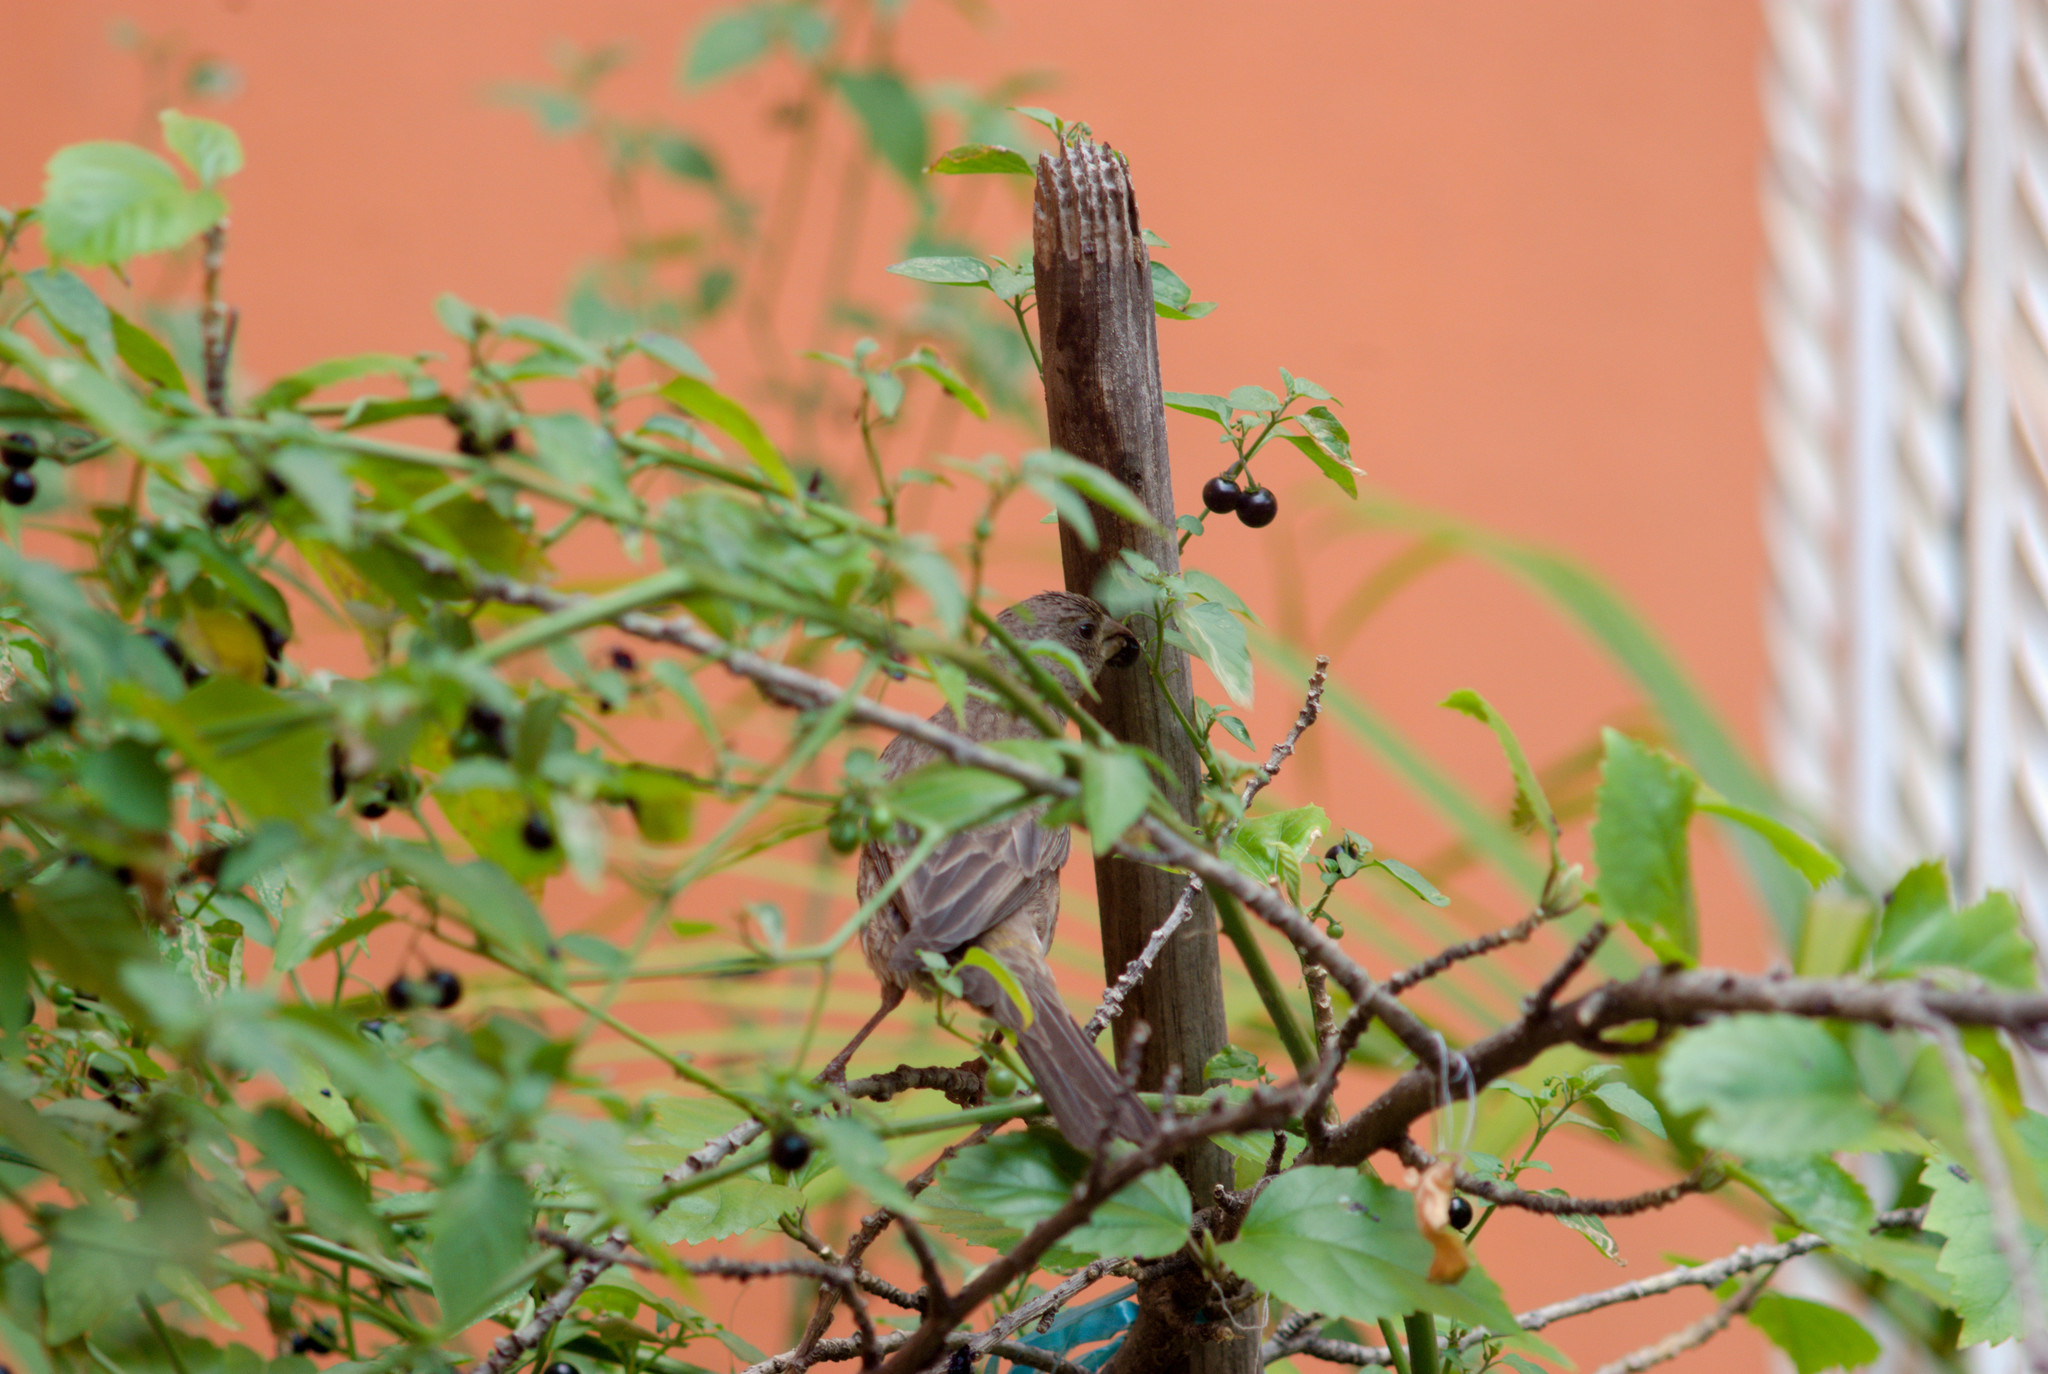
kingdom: Animalia
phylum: Chordata
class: Aves
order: Passeriformes
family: Fringillidae
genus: Haemorhous
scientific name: Haemorhous mexicanus
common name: House finch
